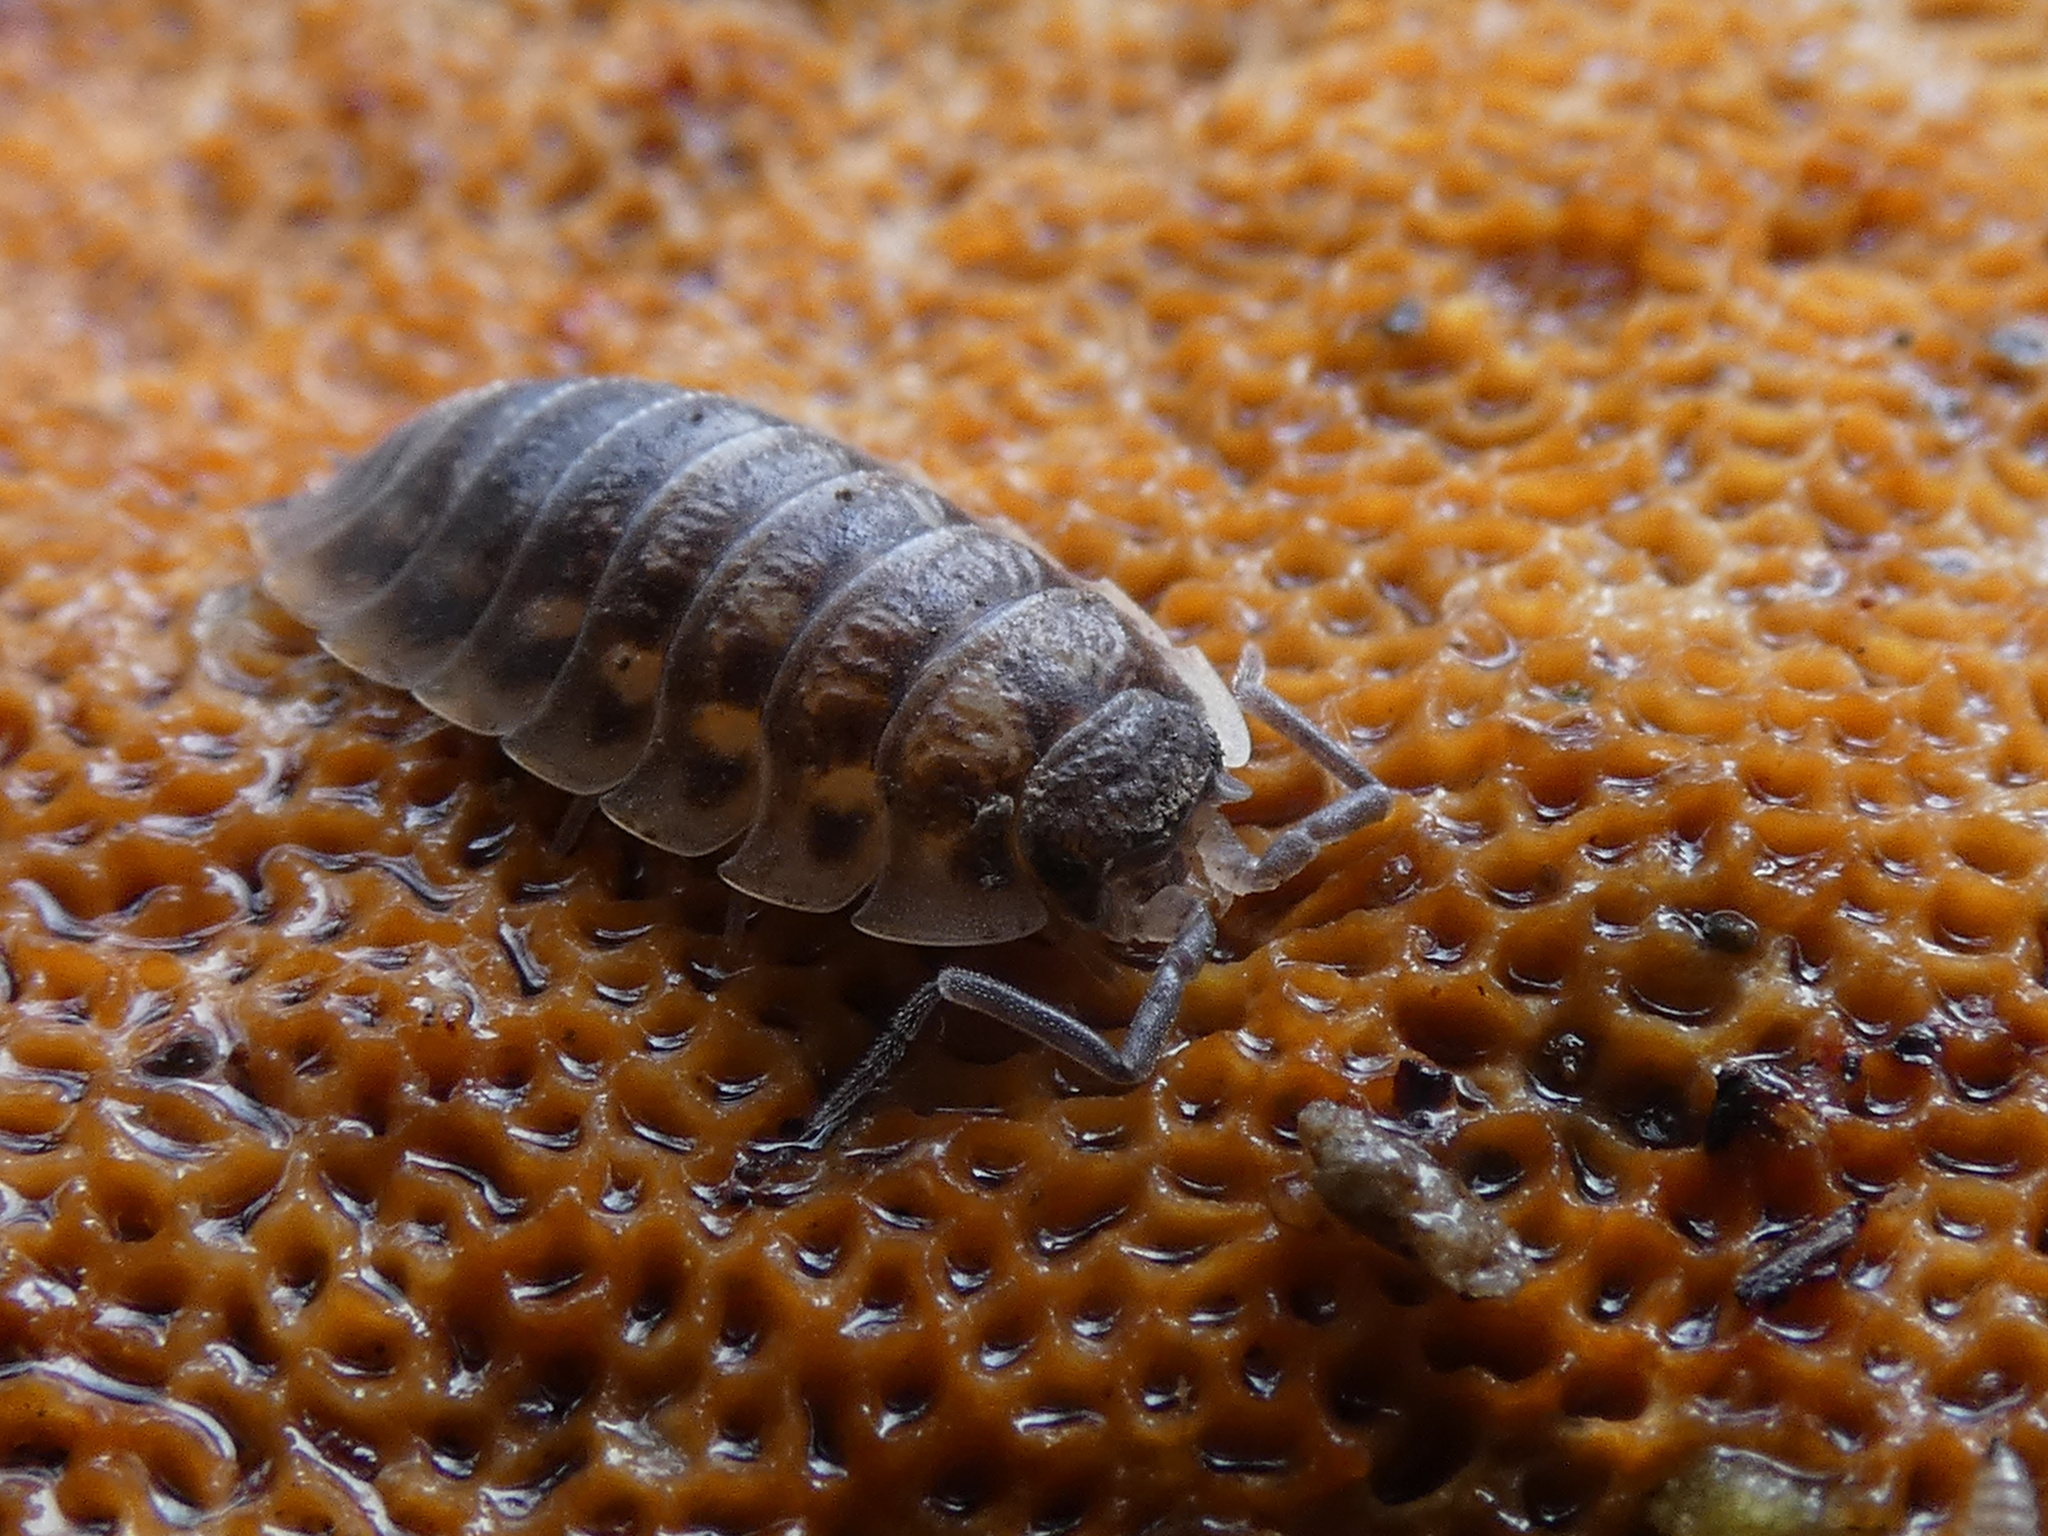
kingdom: Animalia
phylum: Arthropoda
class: Malacostraca
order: Isopoda
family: Oniscidae
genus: Oniscus
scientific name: Oniscus asellus
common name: Common shiny woodlouse
